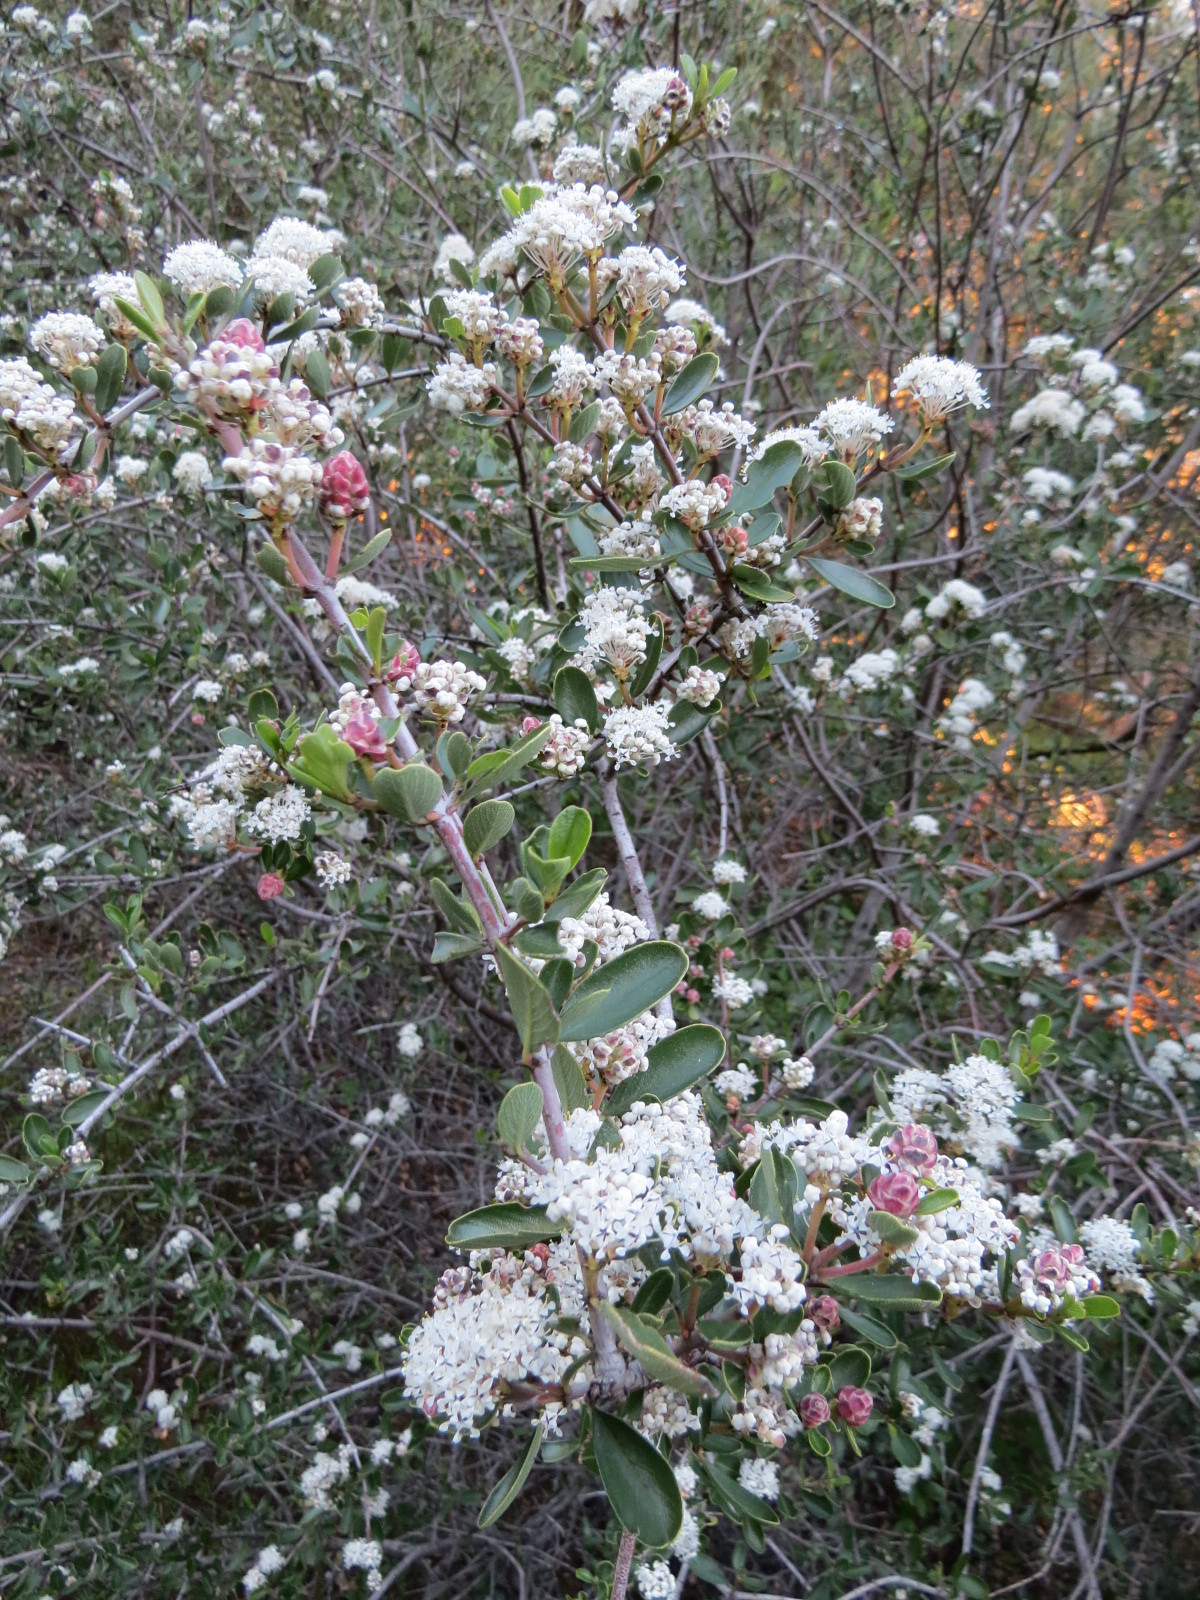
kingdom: Plantae
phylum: Tracheophyta
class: Magnoliopsida
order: Rosales
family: Rhamnaceae
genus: Ceanothus
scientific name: Ceanothus cuneatus
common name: Cuneate ceanothus
